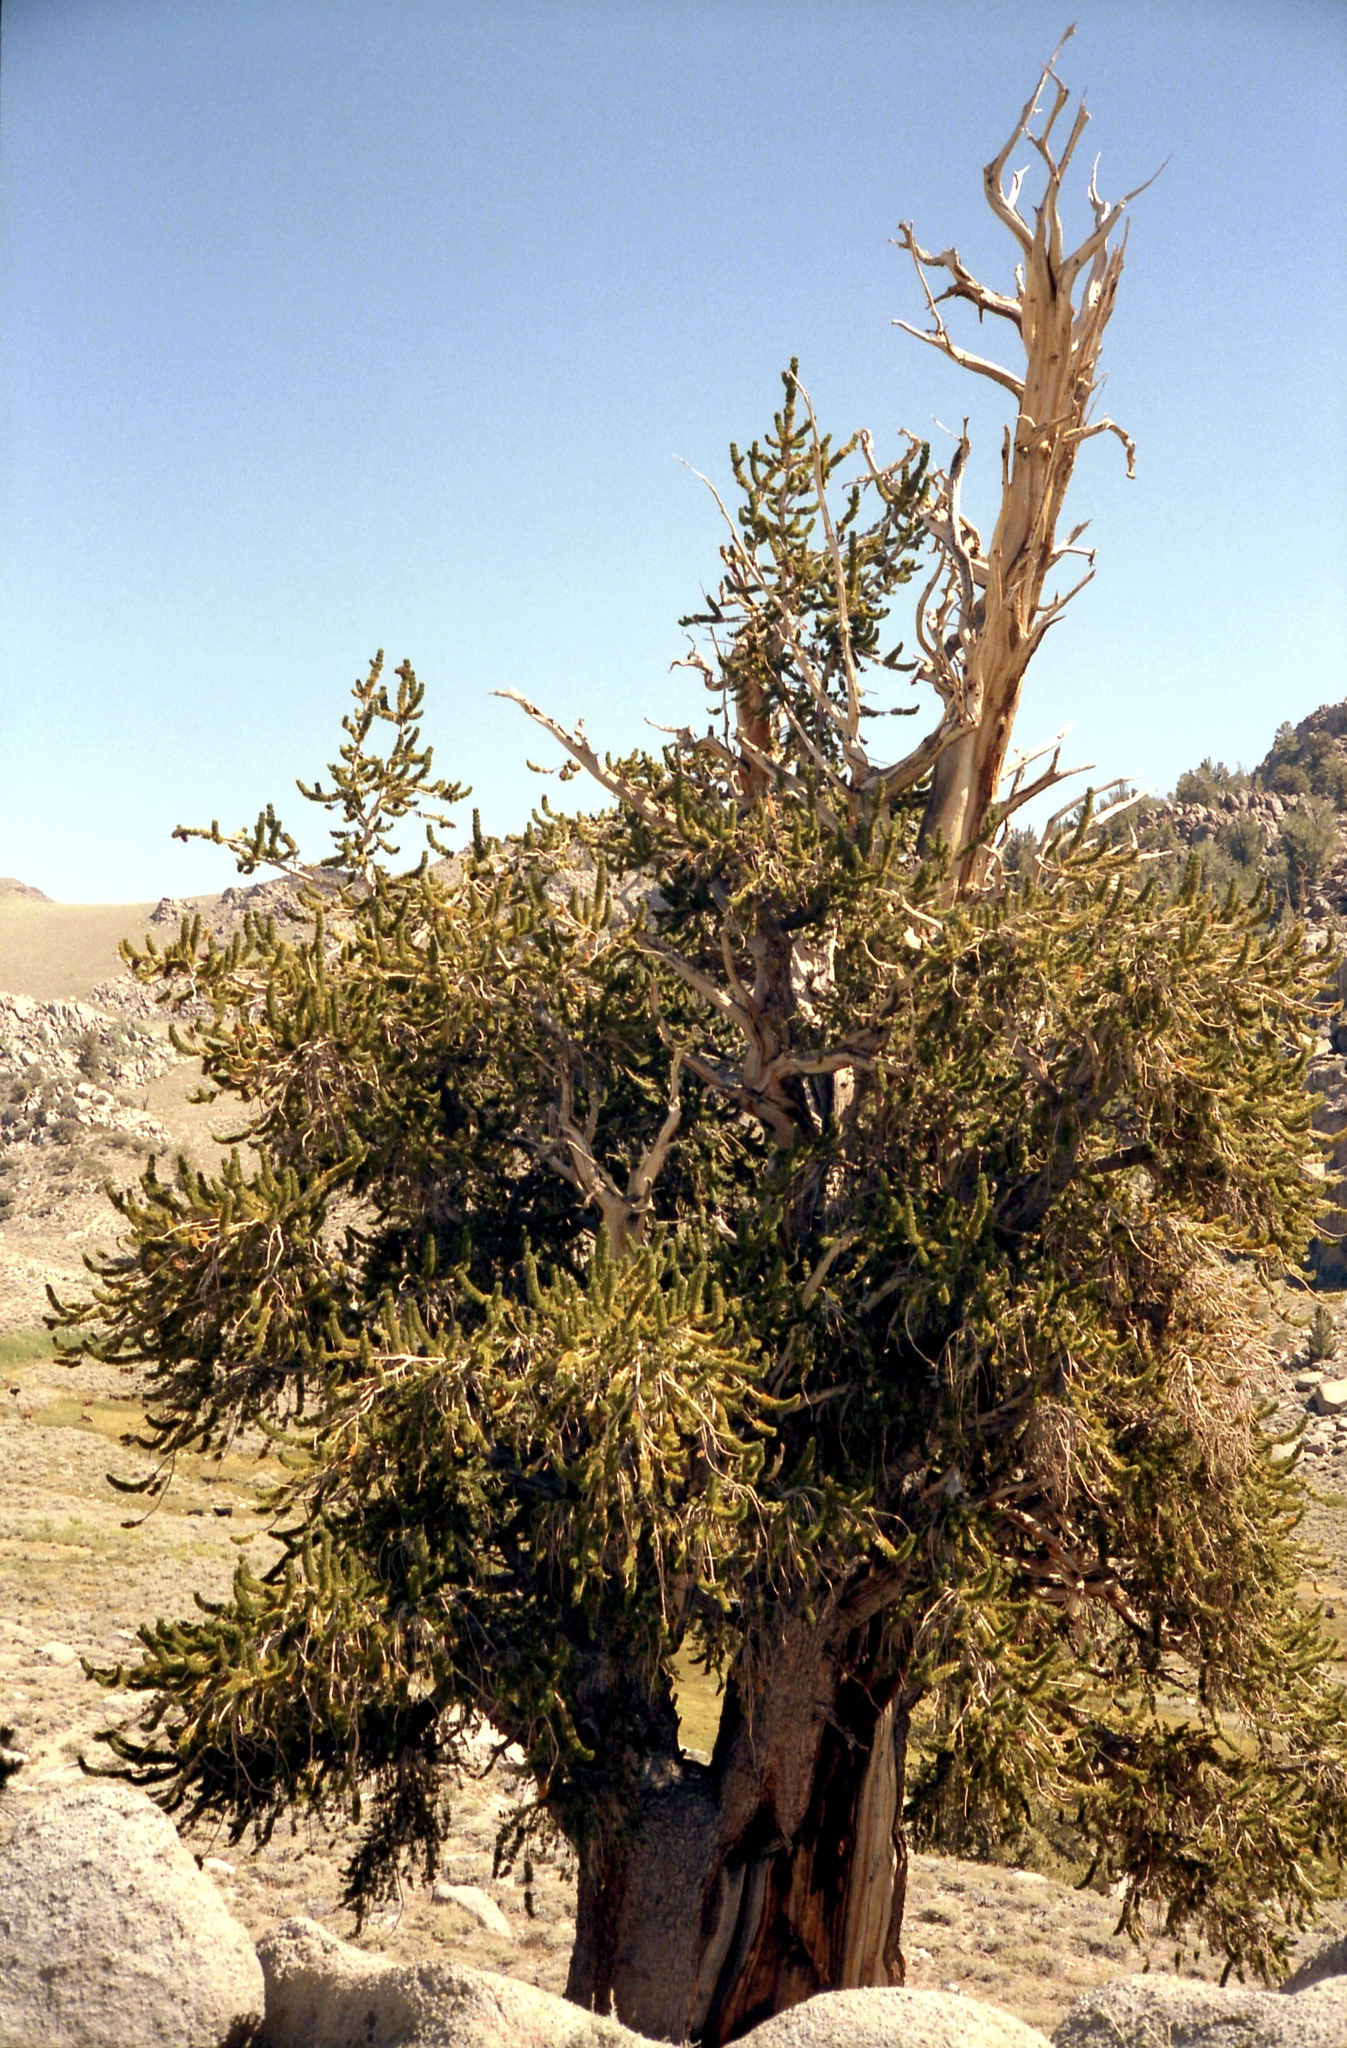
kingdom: Plantae
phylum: Tracheophyta
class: Pinopsida
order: Pinales
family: Pinaceae
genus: Pinus
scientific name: Pinus longaeva
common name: Intermountain bristlecone pine
